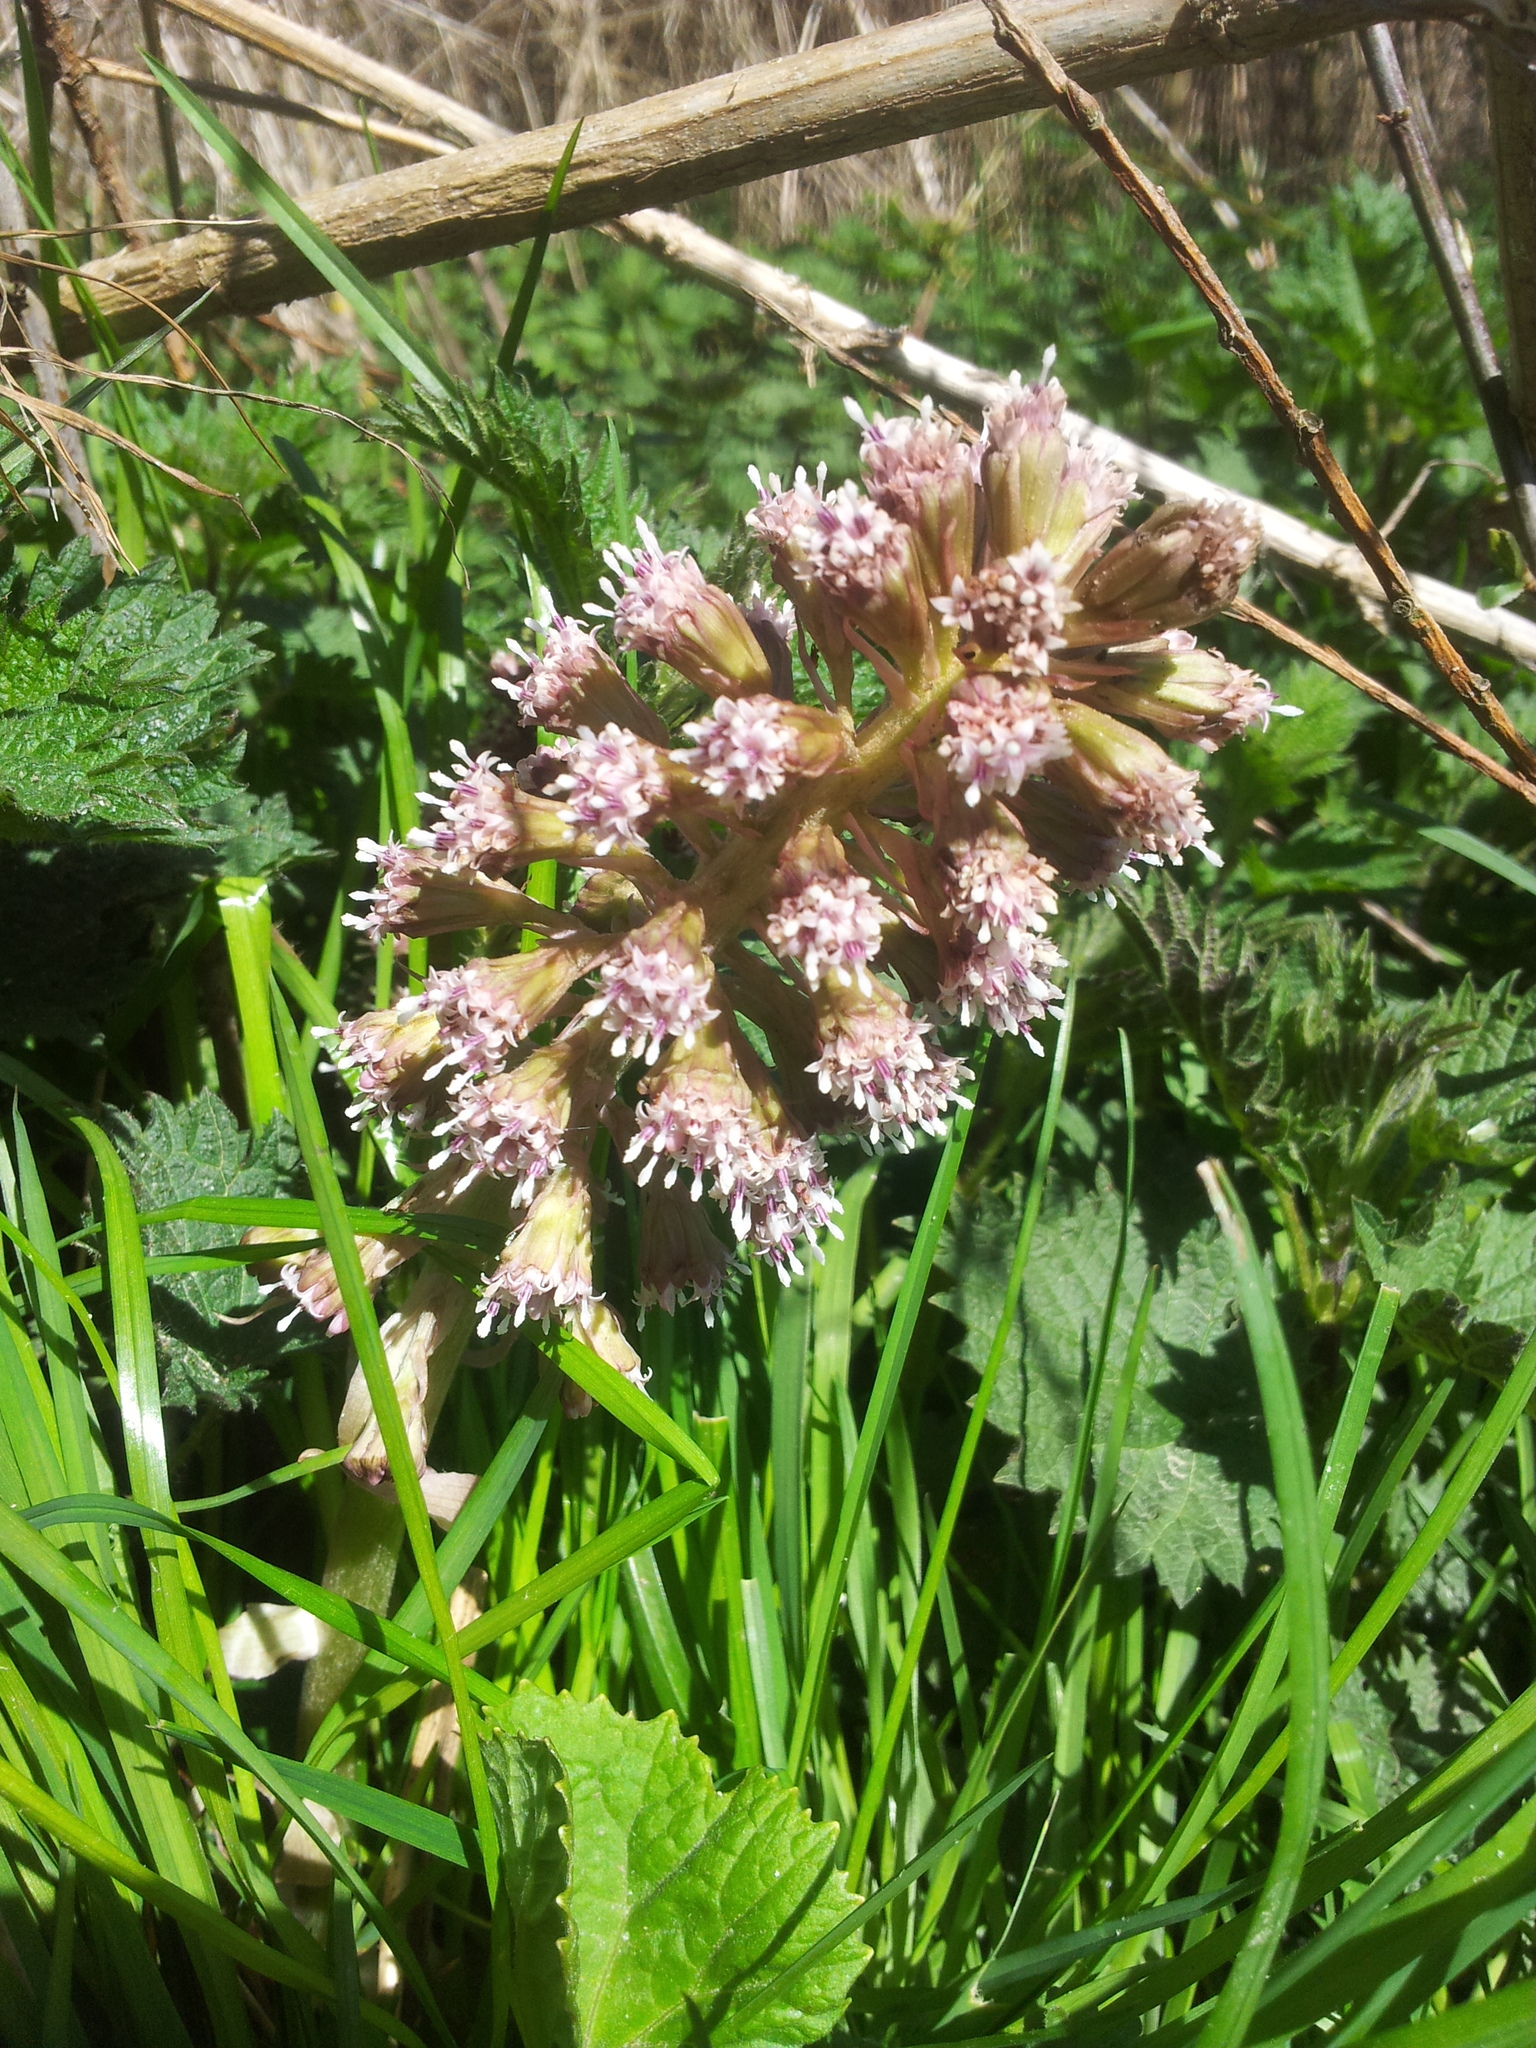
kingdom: Plantae
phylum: Tracheophyta
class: Magnoliopsida
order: Asterales
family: Asteraceae
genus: Petasites
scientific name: Petasites hybridus
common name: Butterbur
